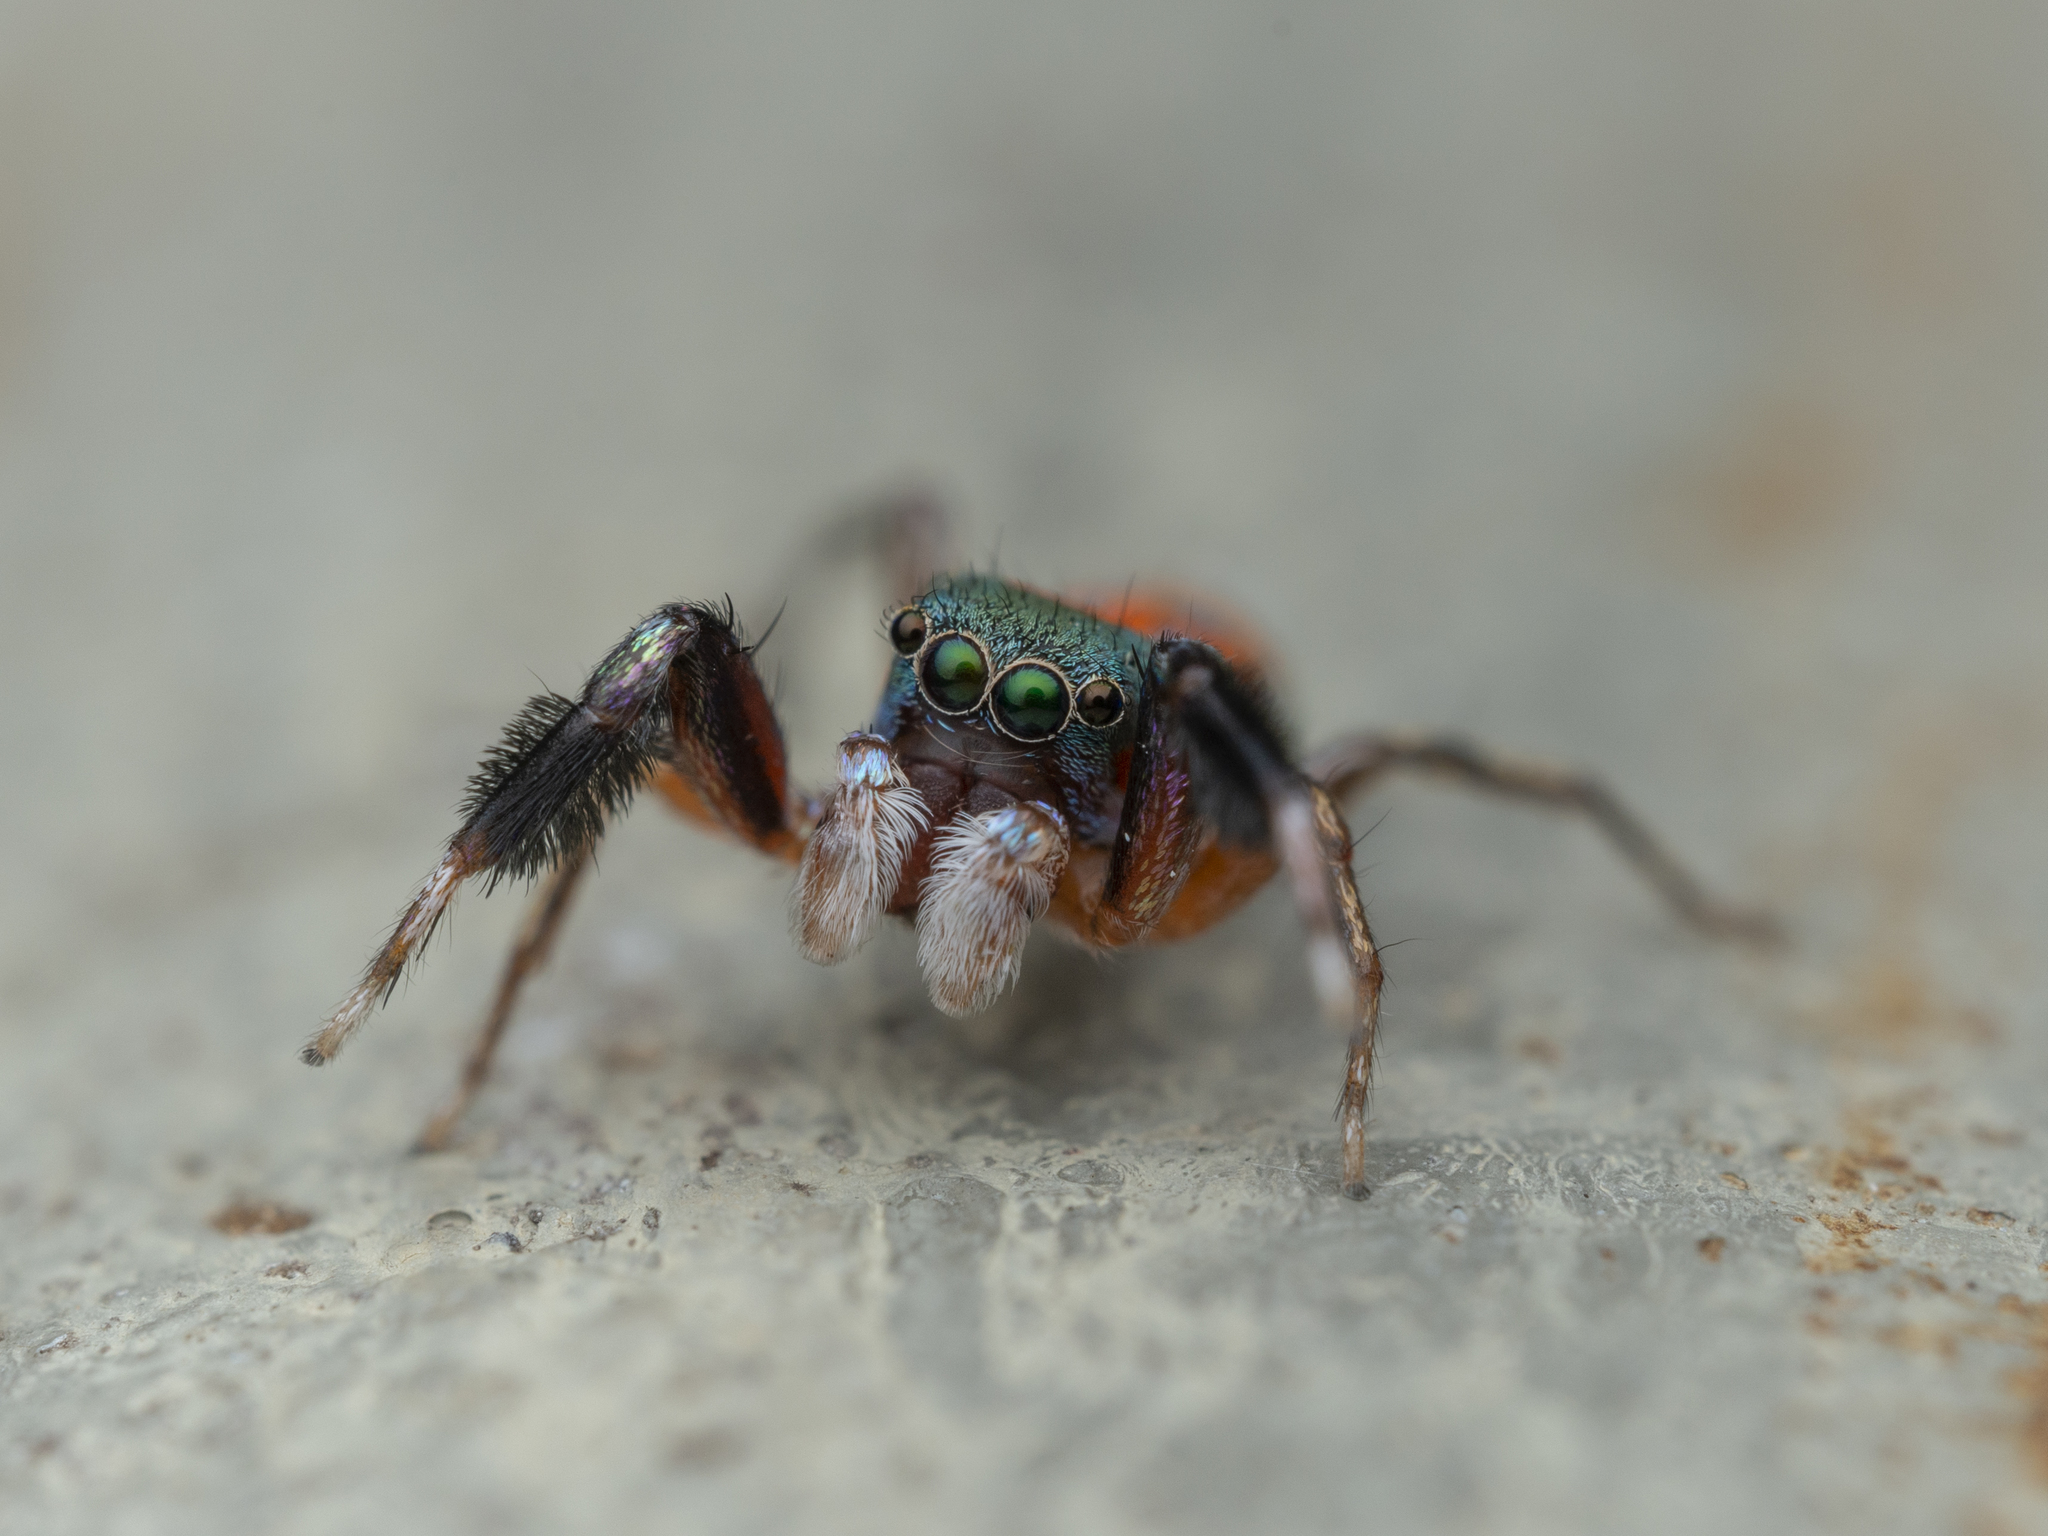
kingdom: Animalia
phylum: Arthropoda
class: Arachnida
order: Araneae
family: Salticidae
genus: Siler
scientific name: Siler collingwoodi
